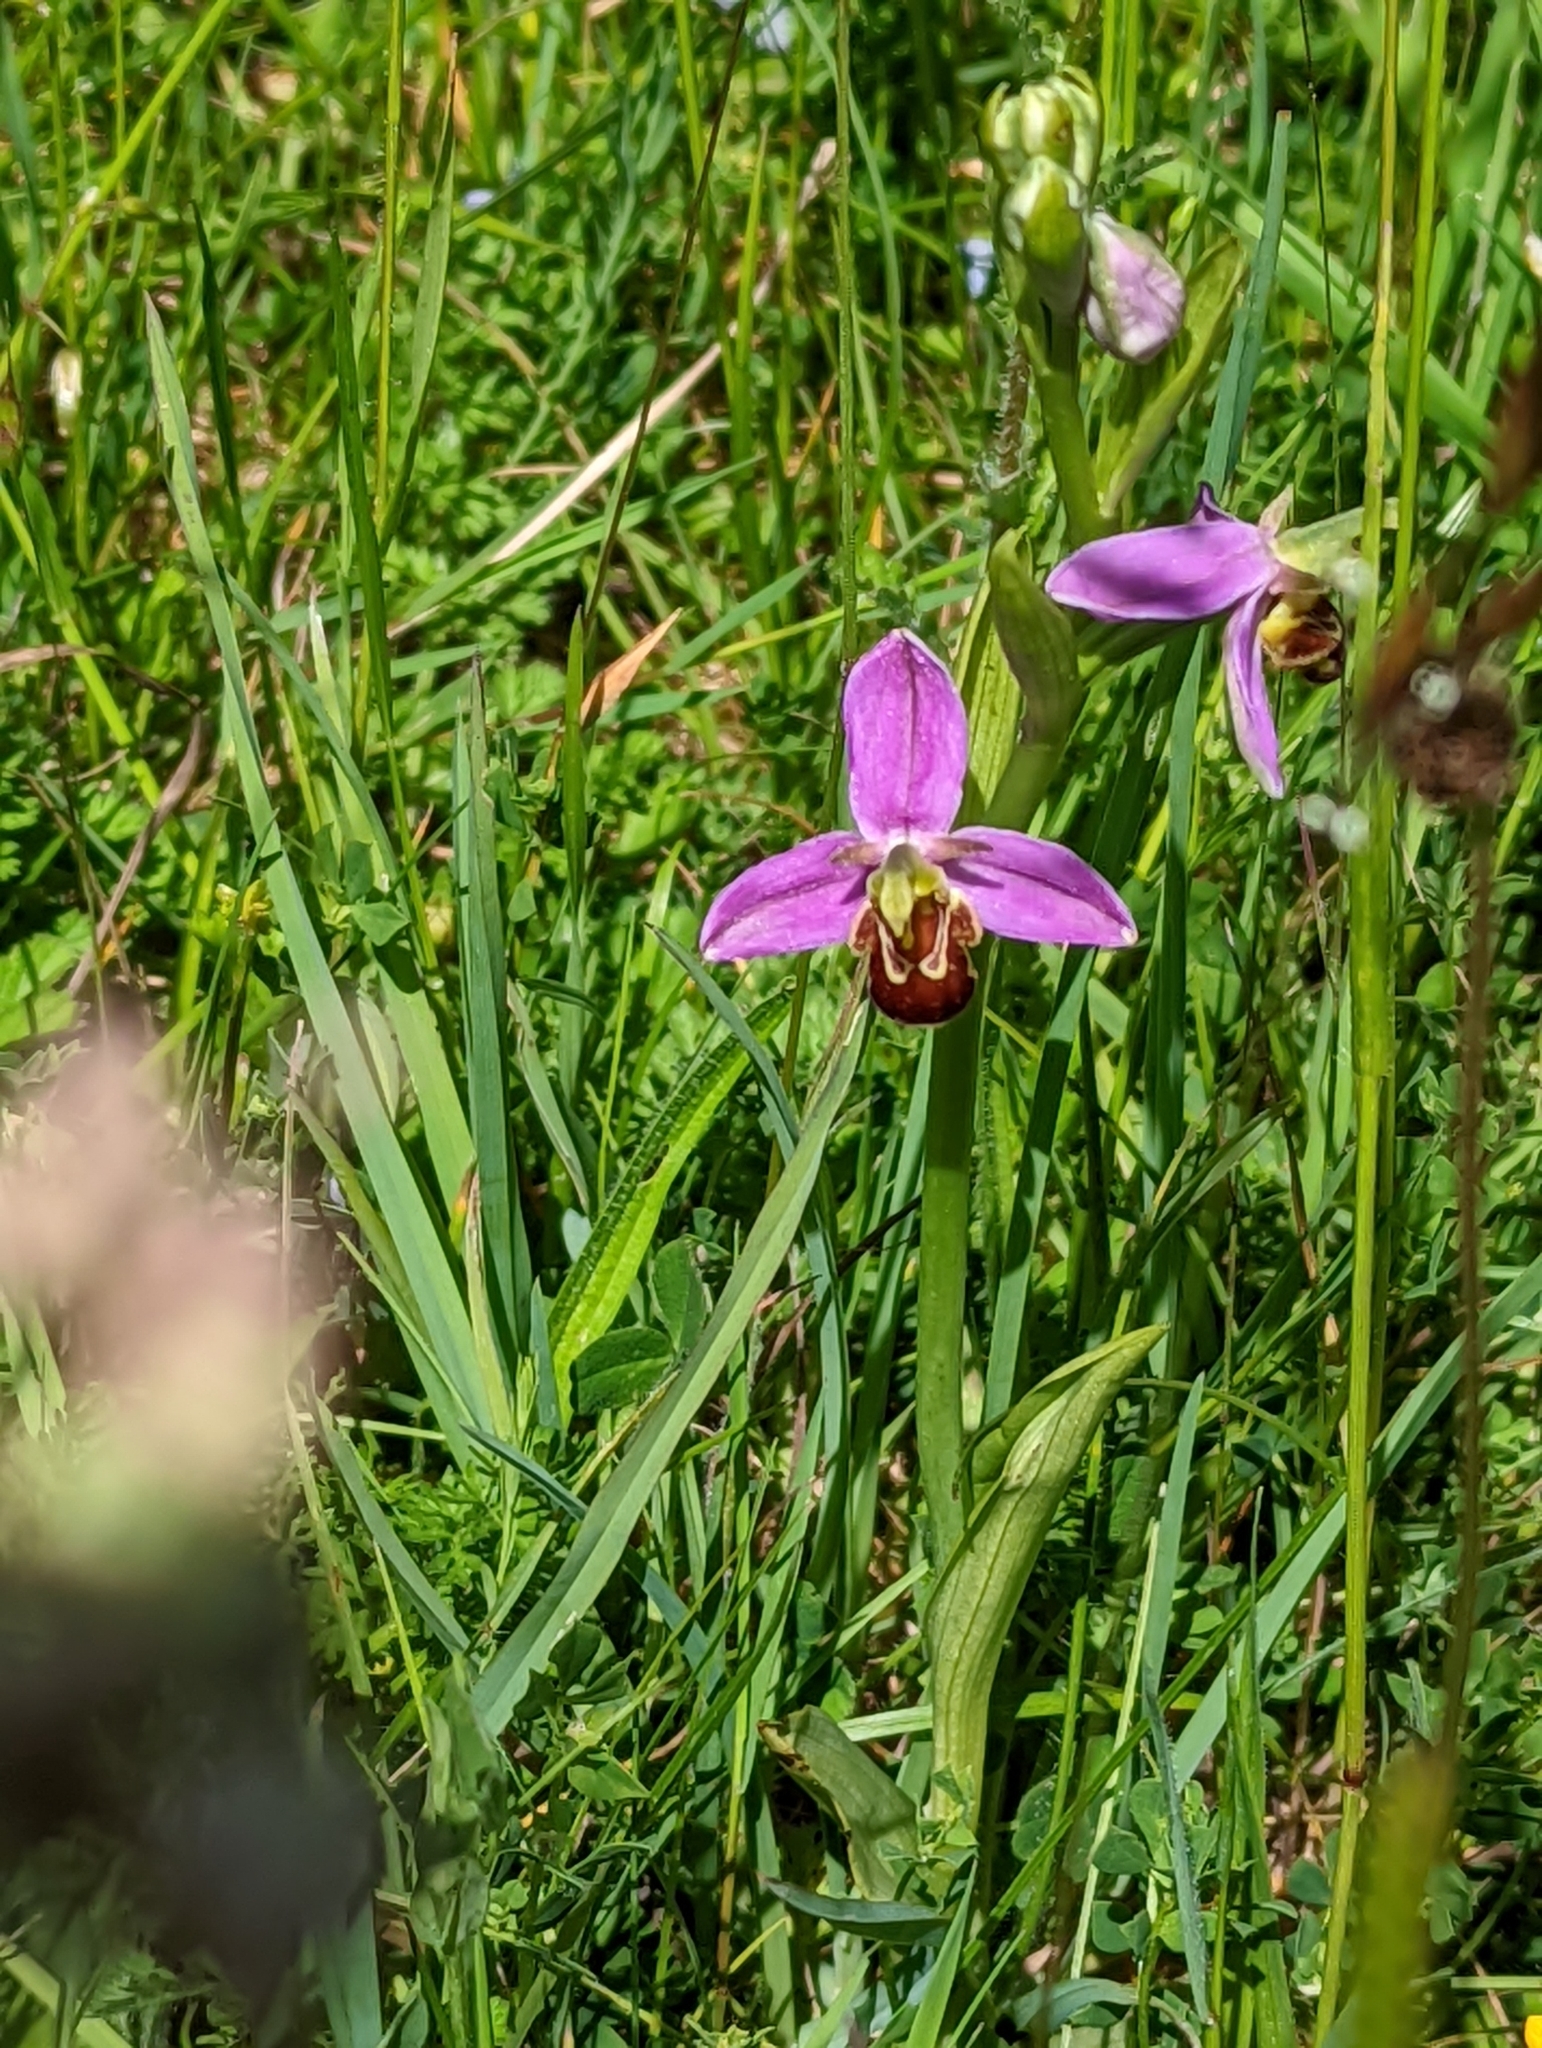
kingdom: Plantae
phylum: Tracheophyta
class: Liliopsida
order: Asparagales
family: Orchidaceae
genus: Ophrys
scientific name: Ophrys apifera
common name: Bee orchid
